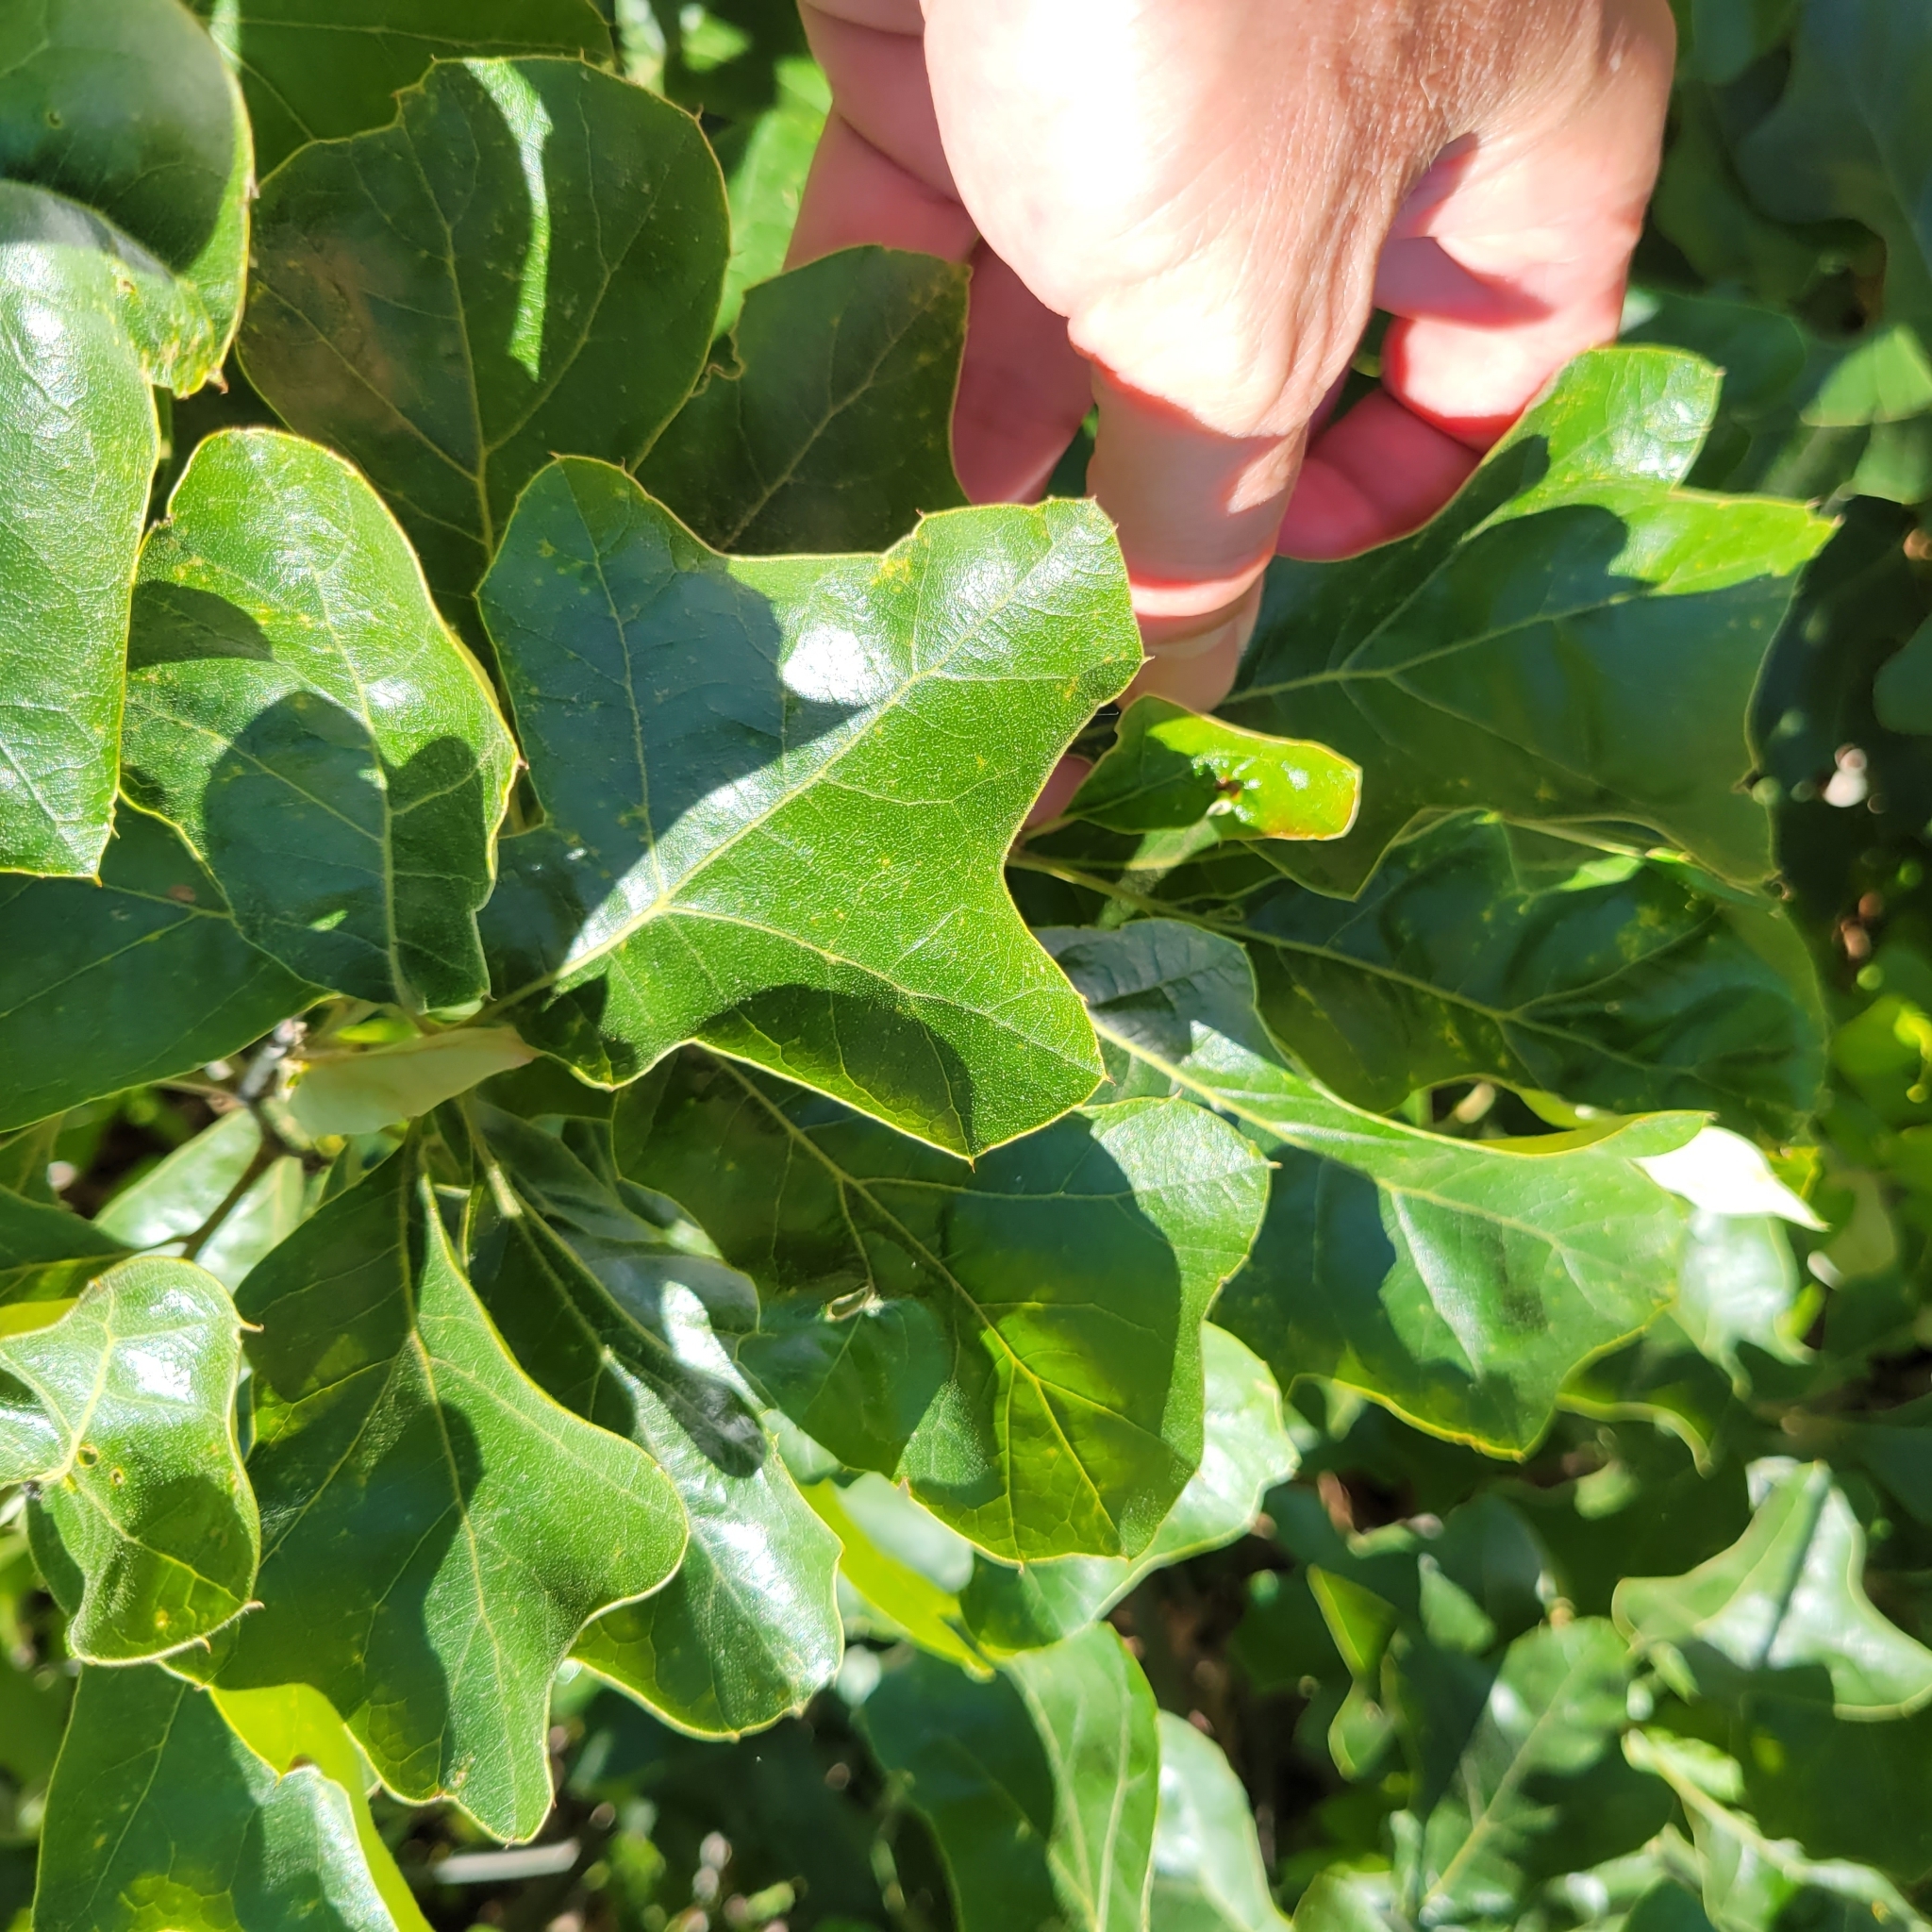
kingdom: Plantae
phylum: Tracheophyta
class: Magnoliopsida
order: Fagales
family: Fagaceae
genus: Quercus
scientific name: Quercus ilicifolia
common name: Bear oak
